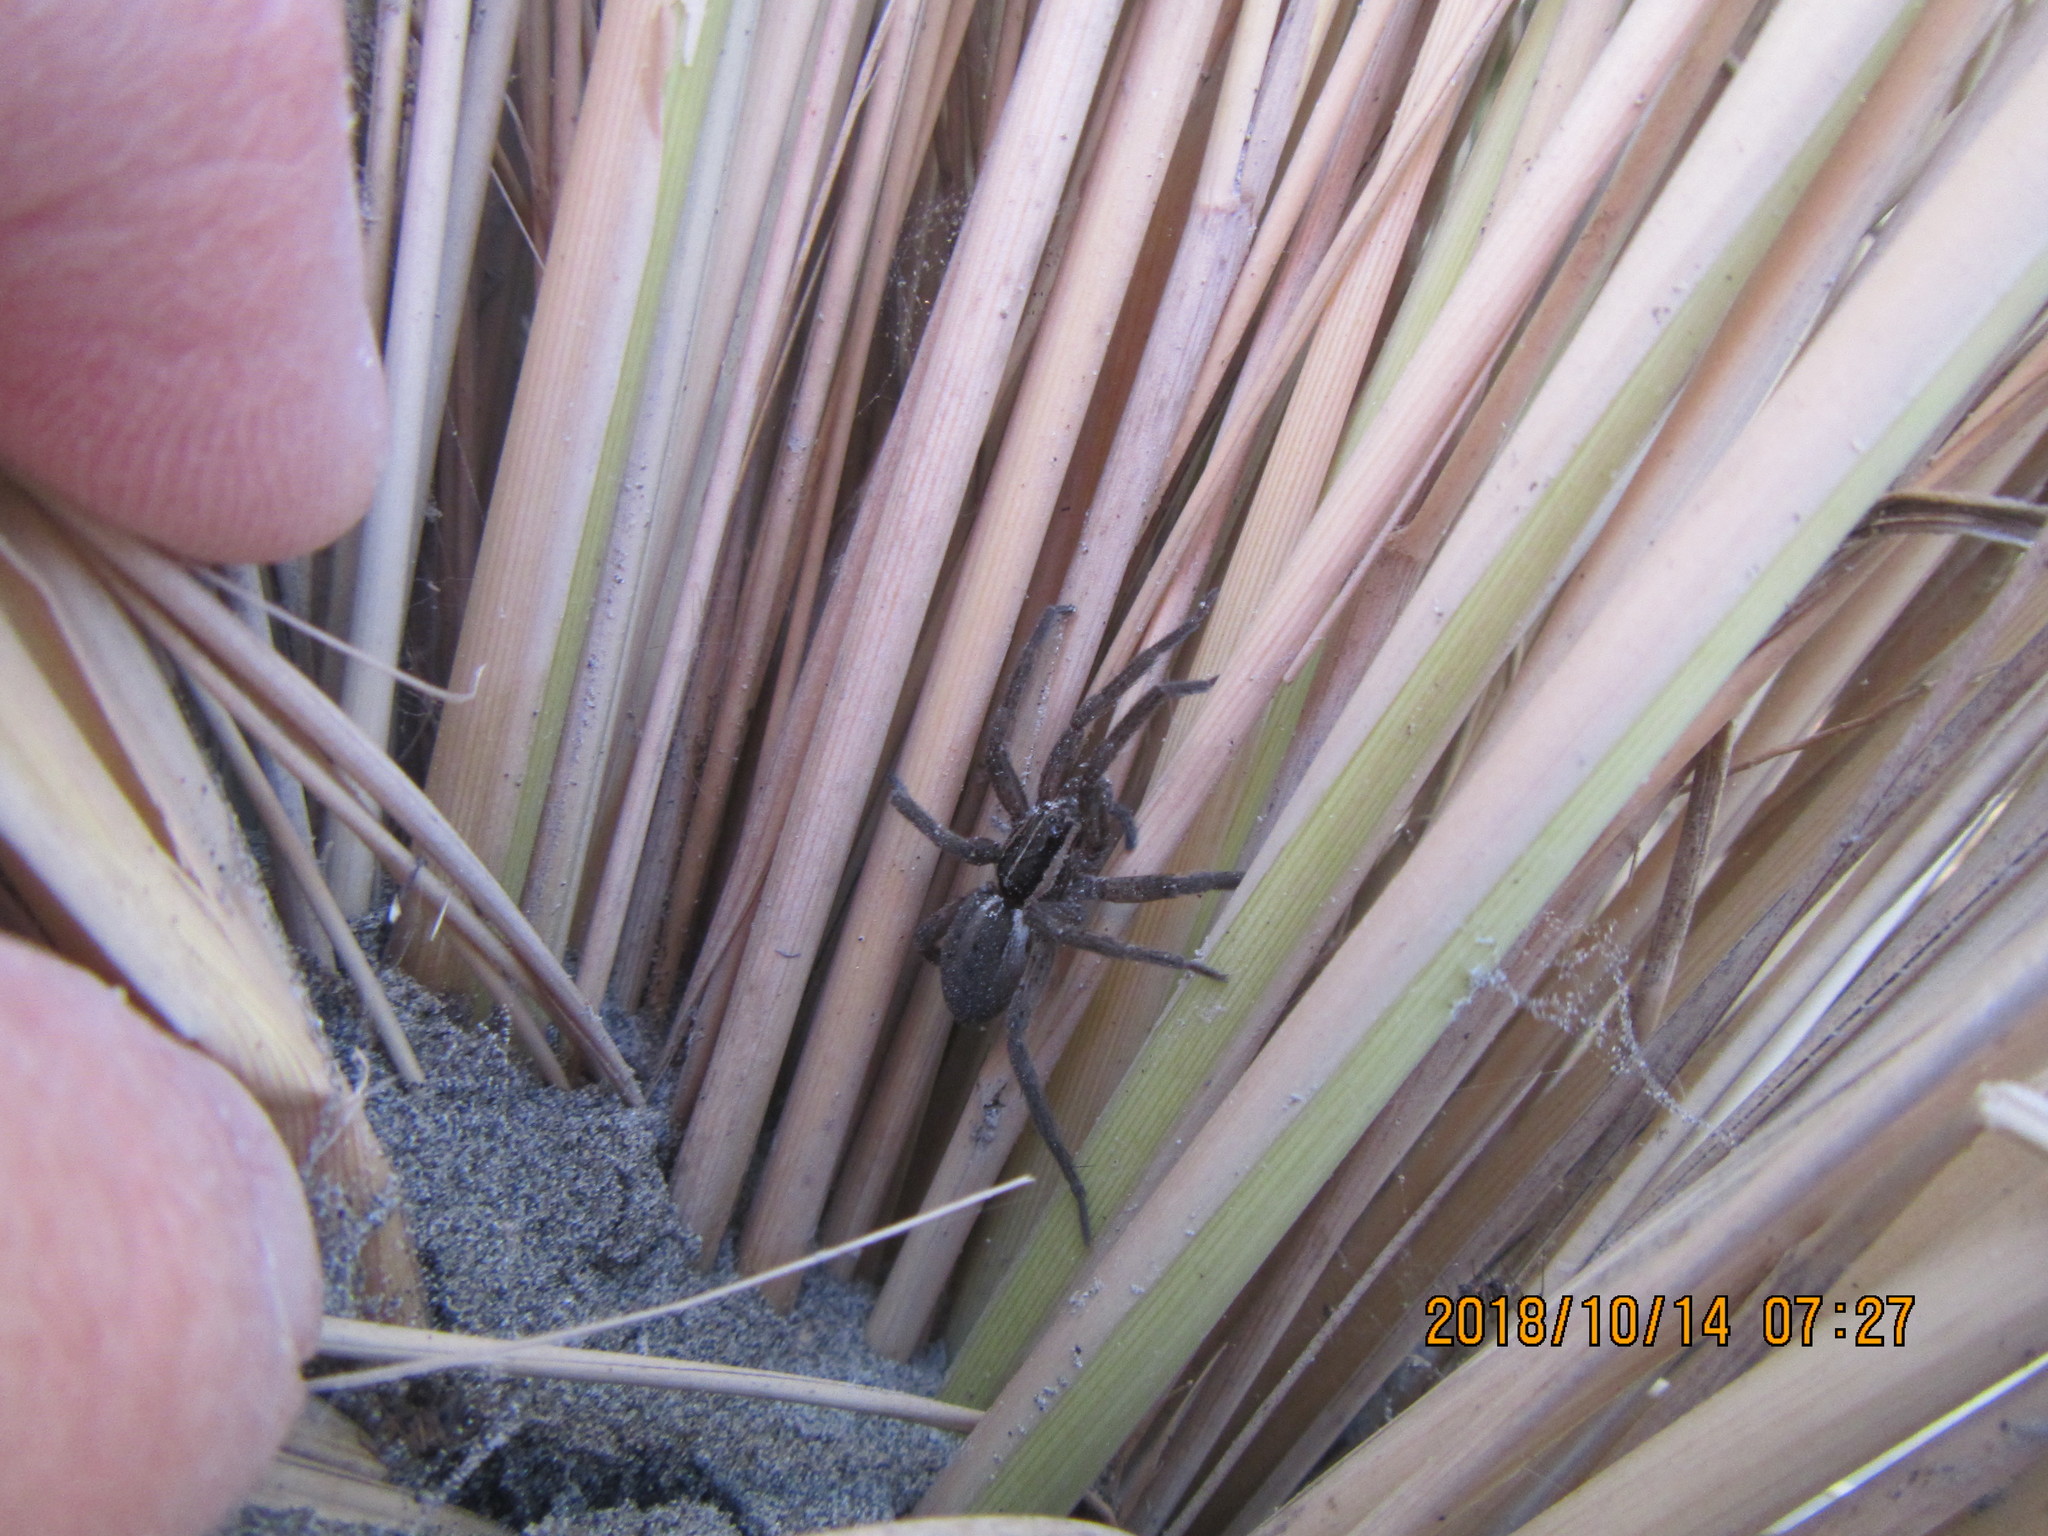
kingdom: Animalia
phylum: Arthropoda
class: Arachnida
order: Araneae
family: Pisauridae
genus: Dolomedes
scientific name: Dolomedes minor
